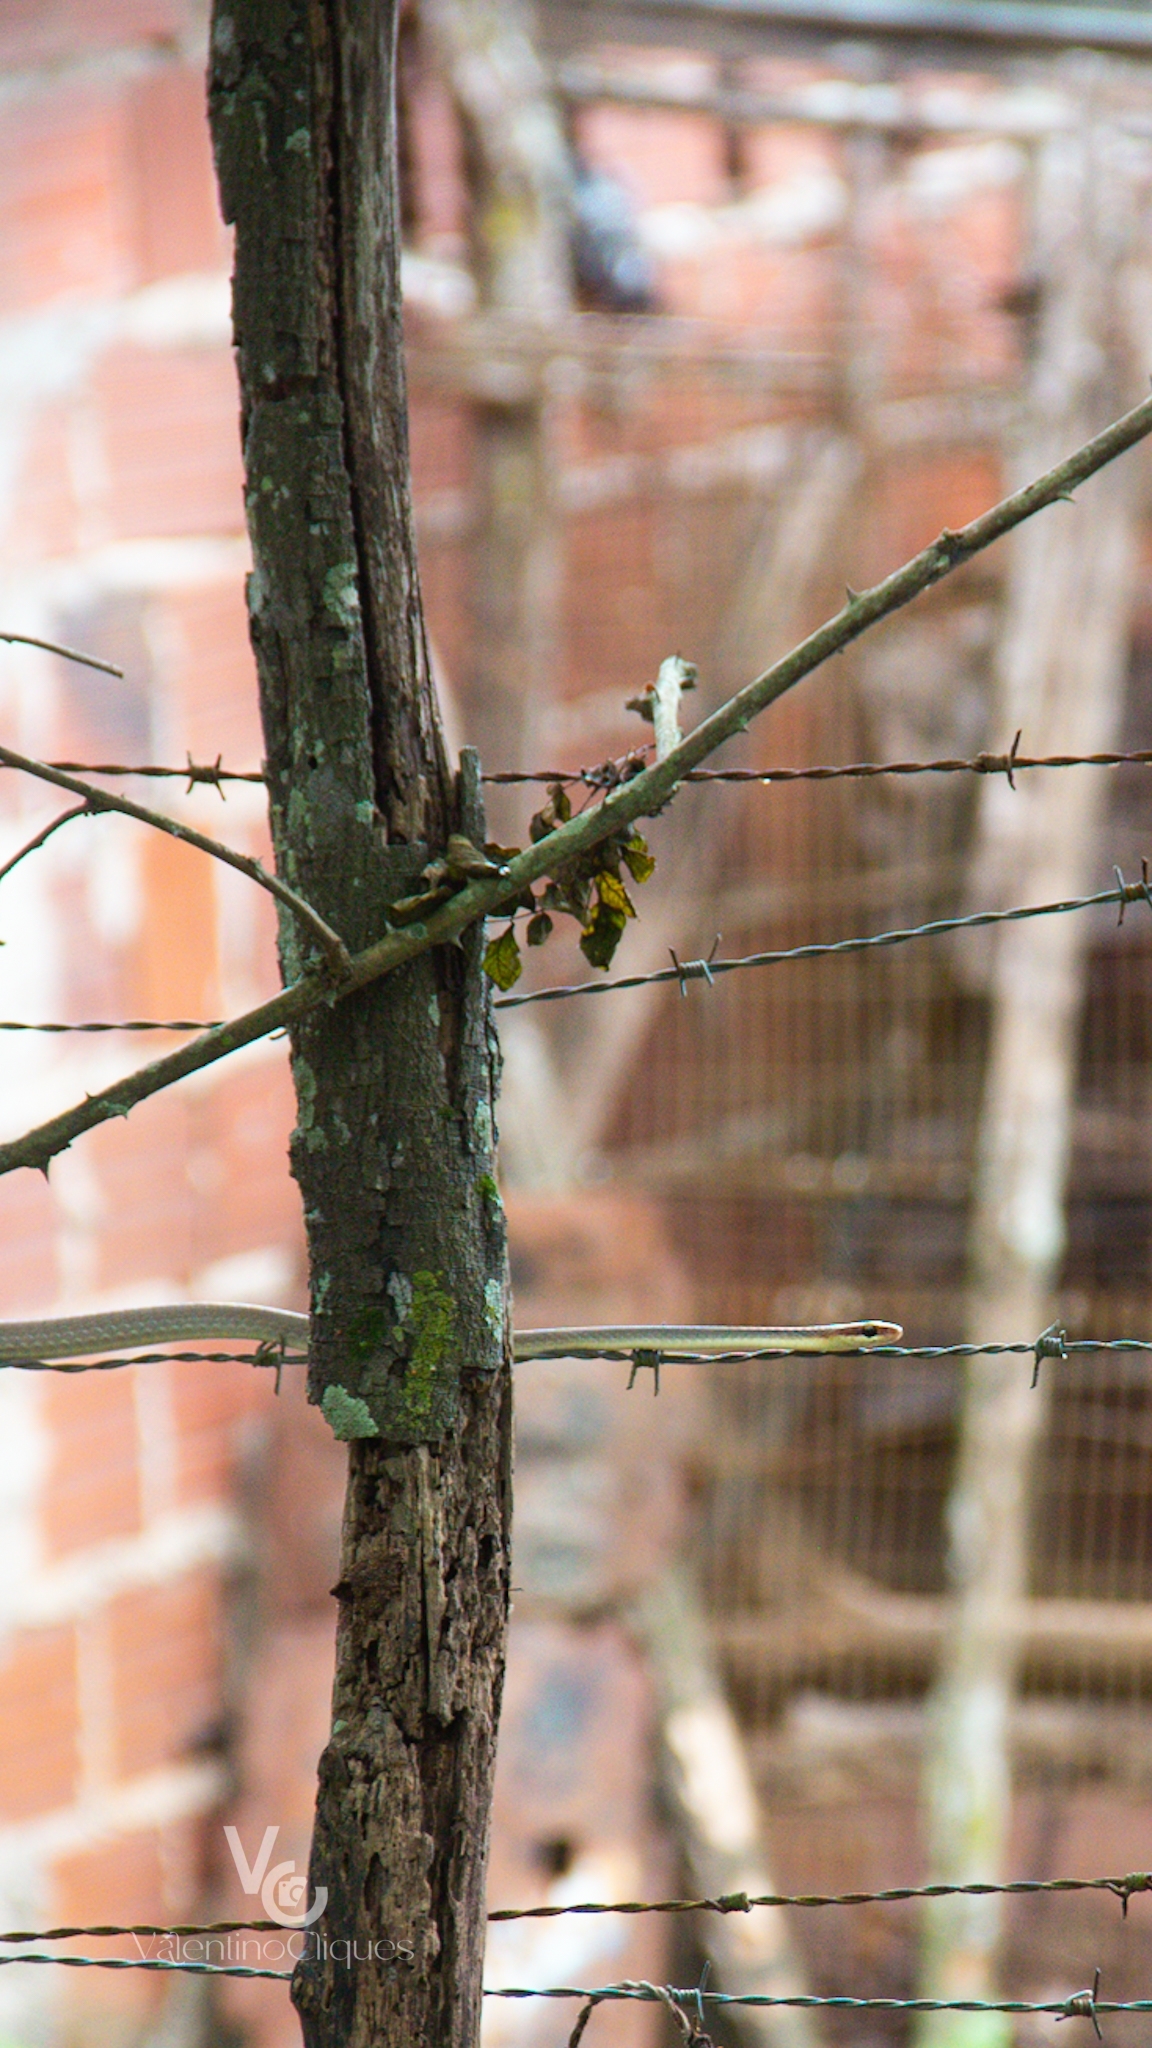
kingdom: Animalia
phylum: Chordata
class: Squamata
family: Colubridae
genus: Chironius
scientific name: Chironius flavolineatus
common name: Boettger's sipo
